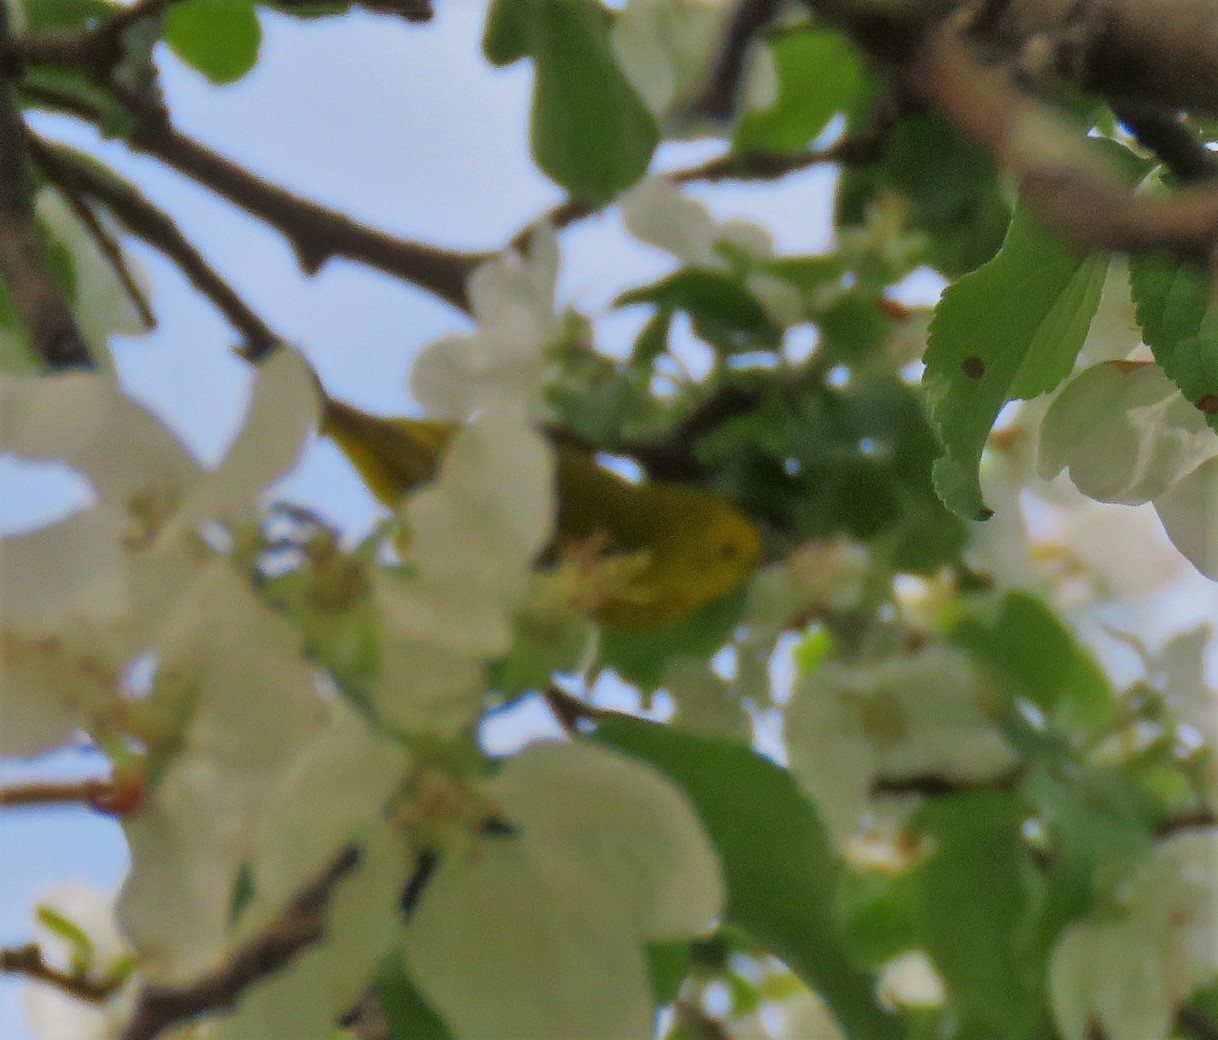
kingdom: Animalia
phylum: Chordata
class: Aves
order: Passeriformes
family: Parulidae
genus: Setophaga
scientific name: Setophaga petechia
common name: Yellow warbler
